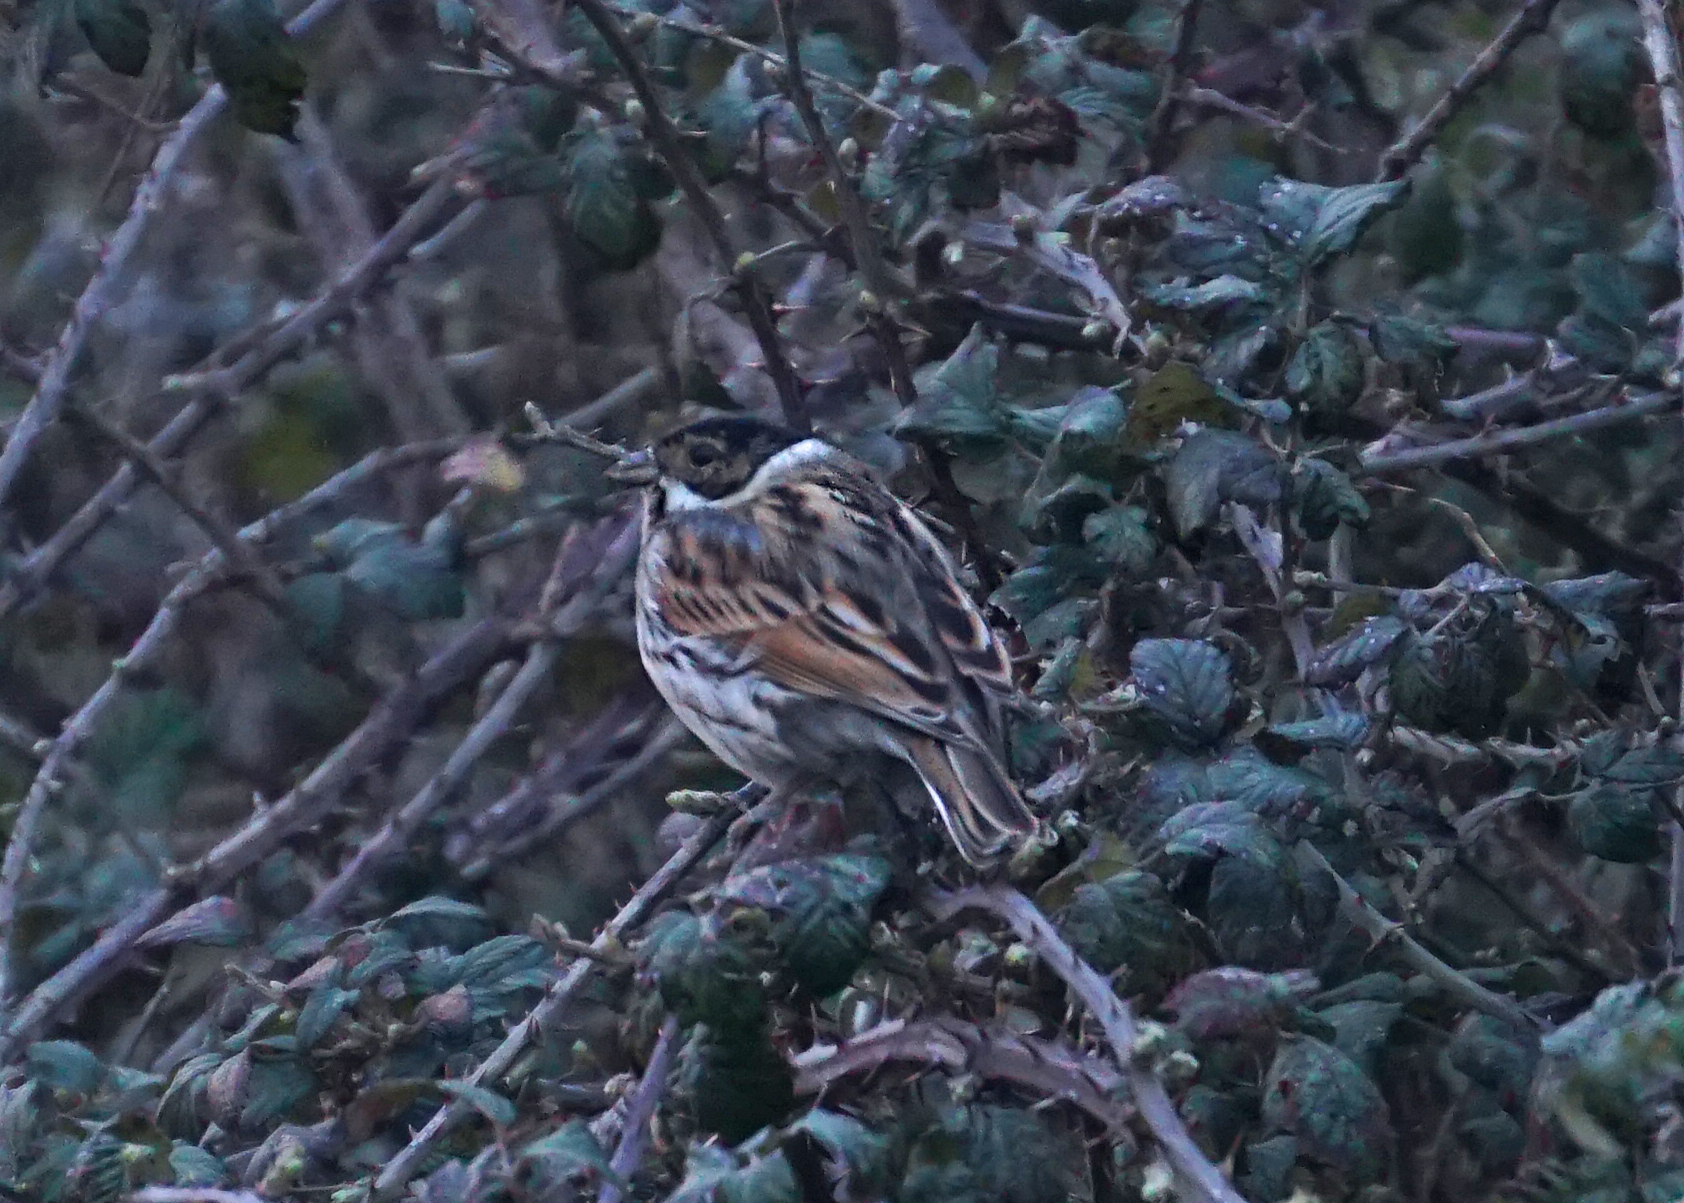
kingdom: Animalia
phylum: Chordata
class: Aves
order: Passeriformes
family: Emberizidae
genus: Emberiza
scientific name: Emberiza schoeniclus
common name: Reed bunting
